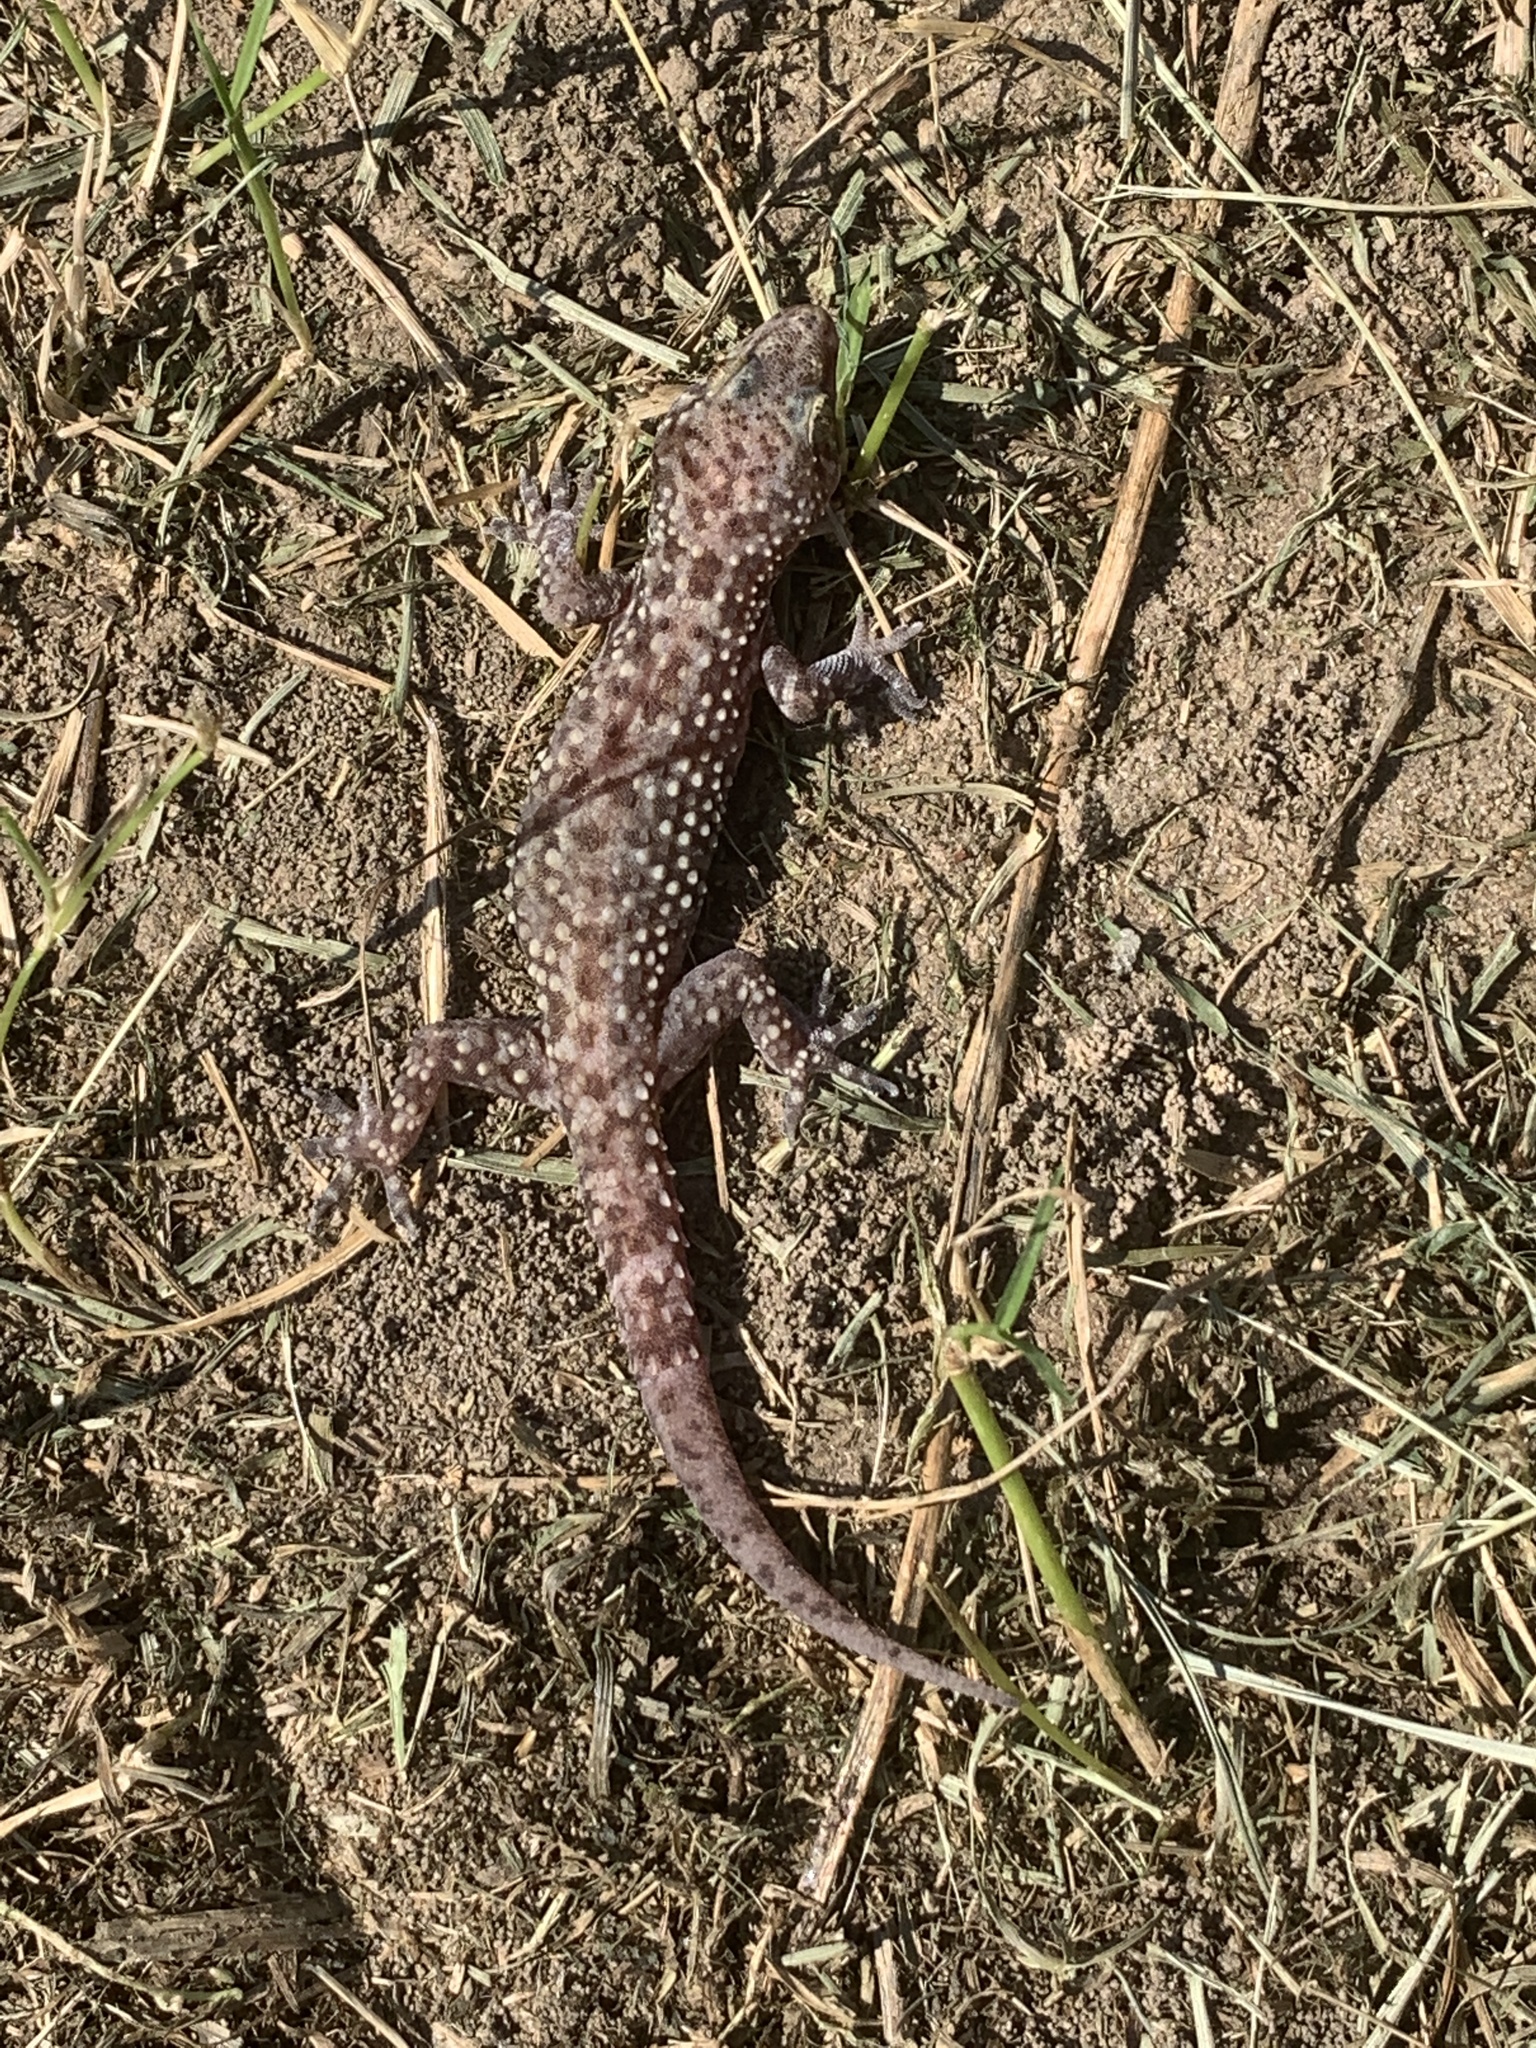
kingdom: Animalia
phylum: Chordata
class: Squamata
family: Gekkonidae
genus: Hemidactylus
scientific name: Hemidactylus turcicus
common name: Turkish gecko
